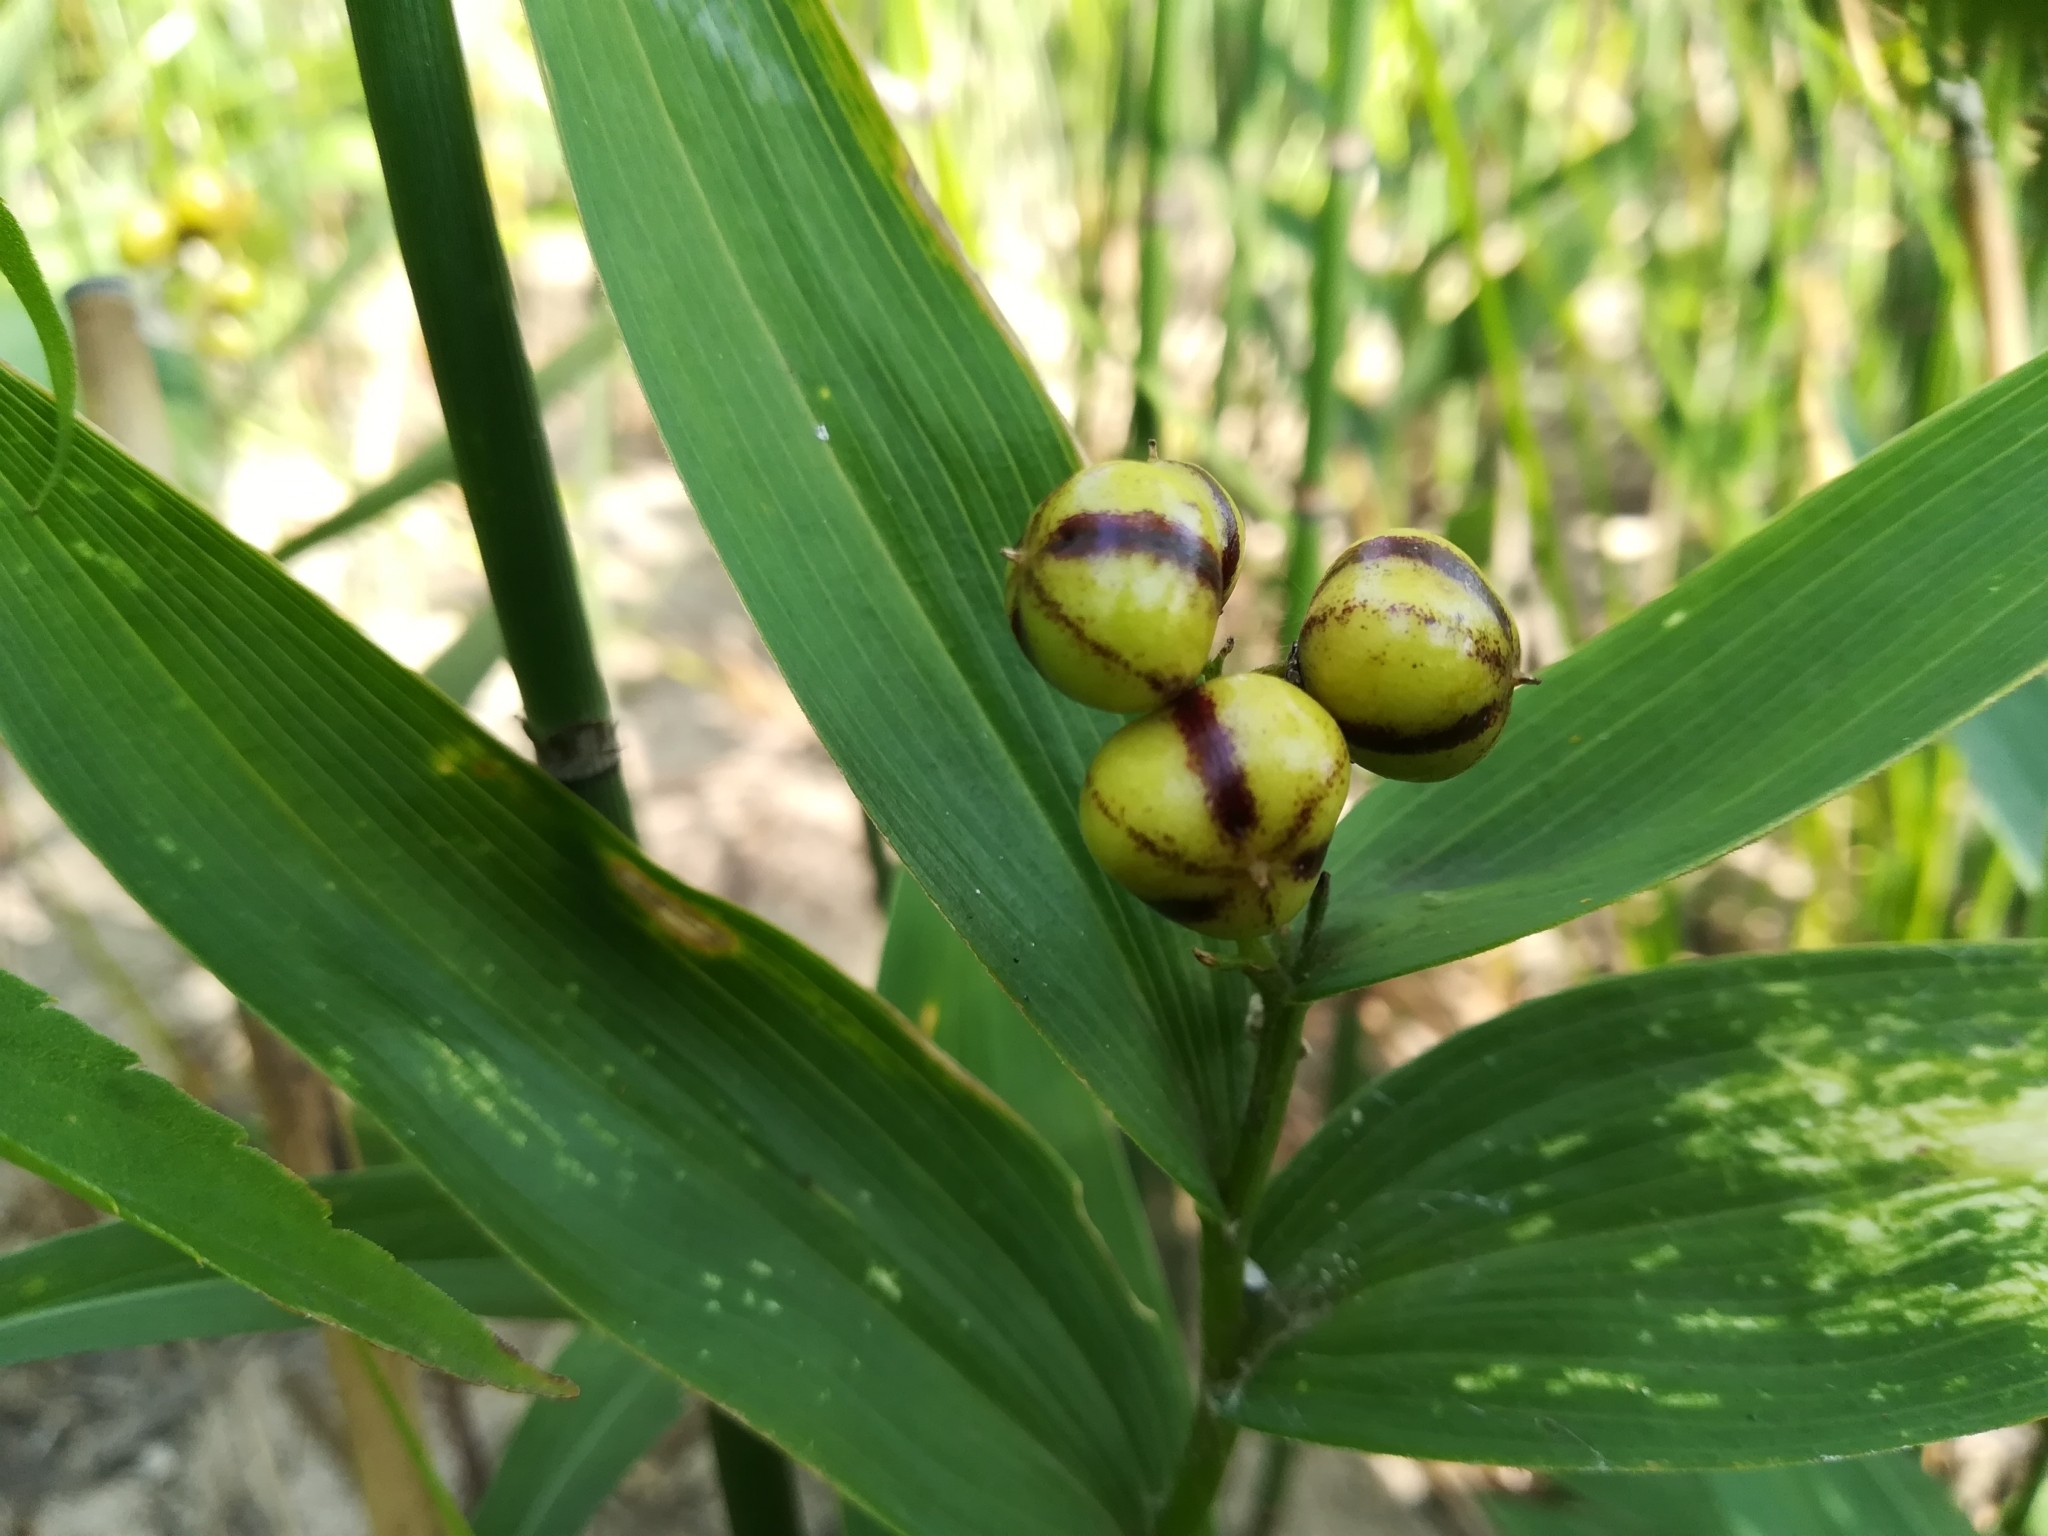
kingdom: Plantae
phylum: Tracheophyta
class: Liliopsida
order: Asparagales
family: Asparagaceae
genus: Maianthemum
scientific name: Maianthemum stellatum
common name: Little false solomon's seal
